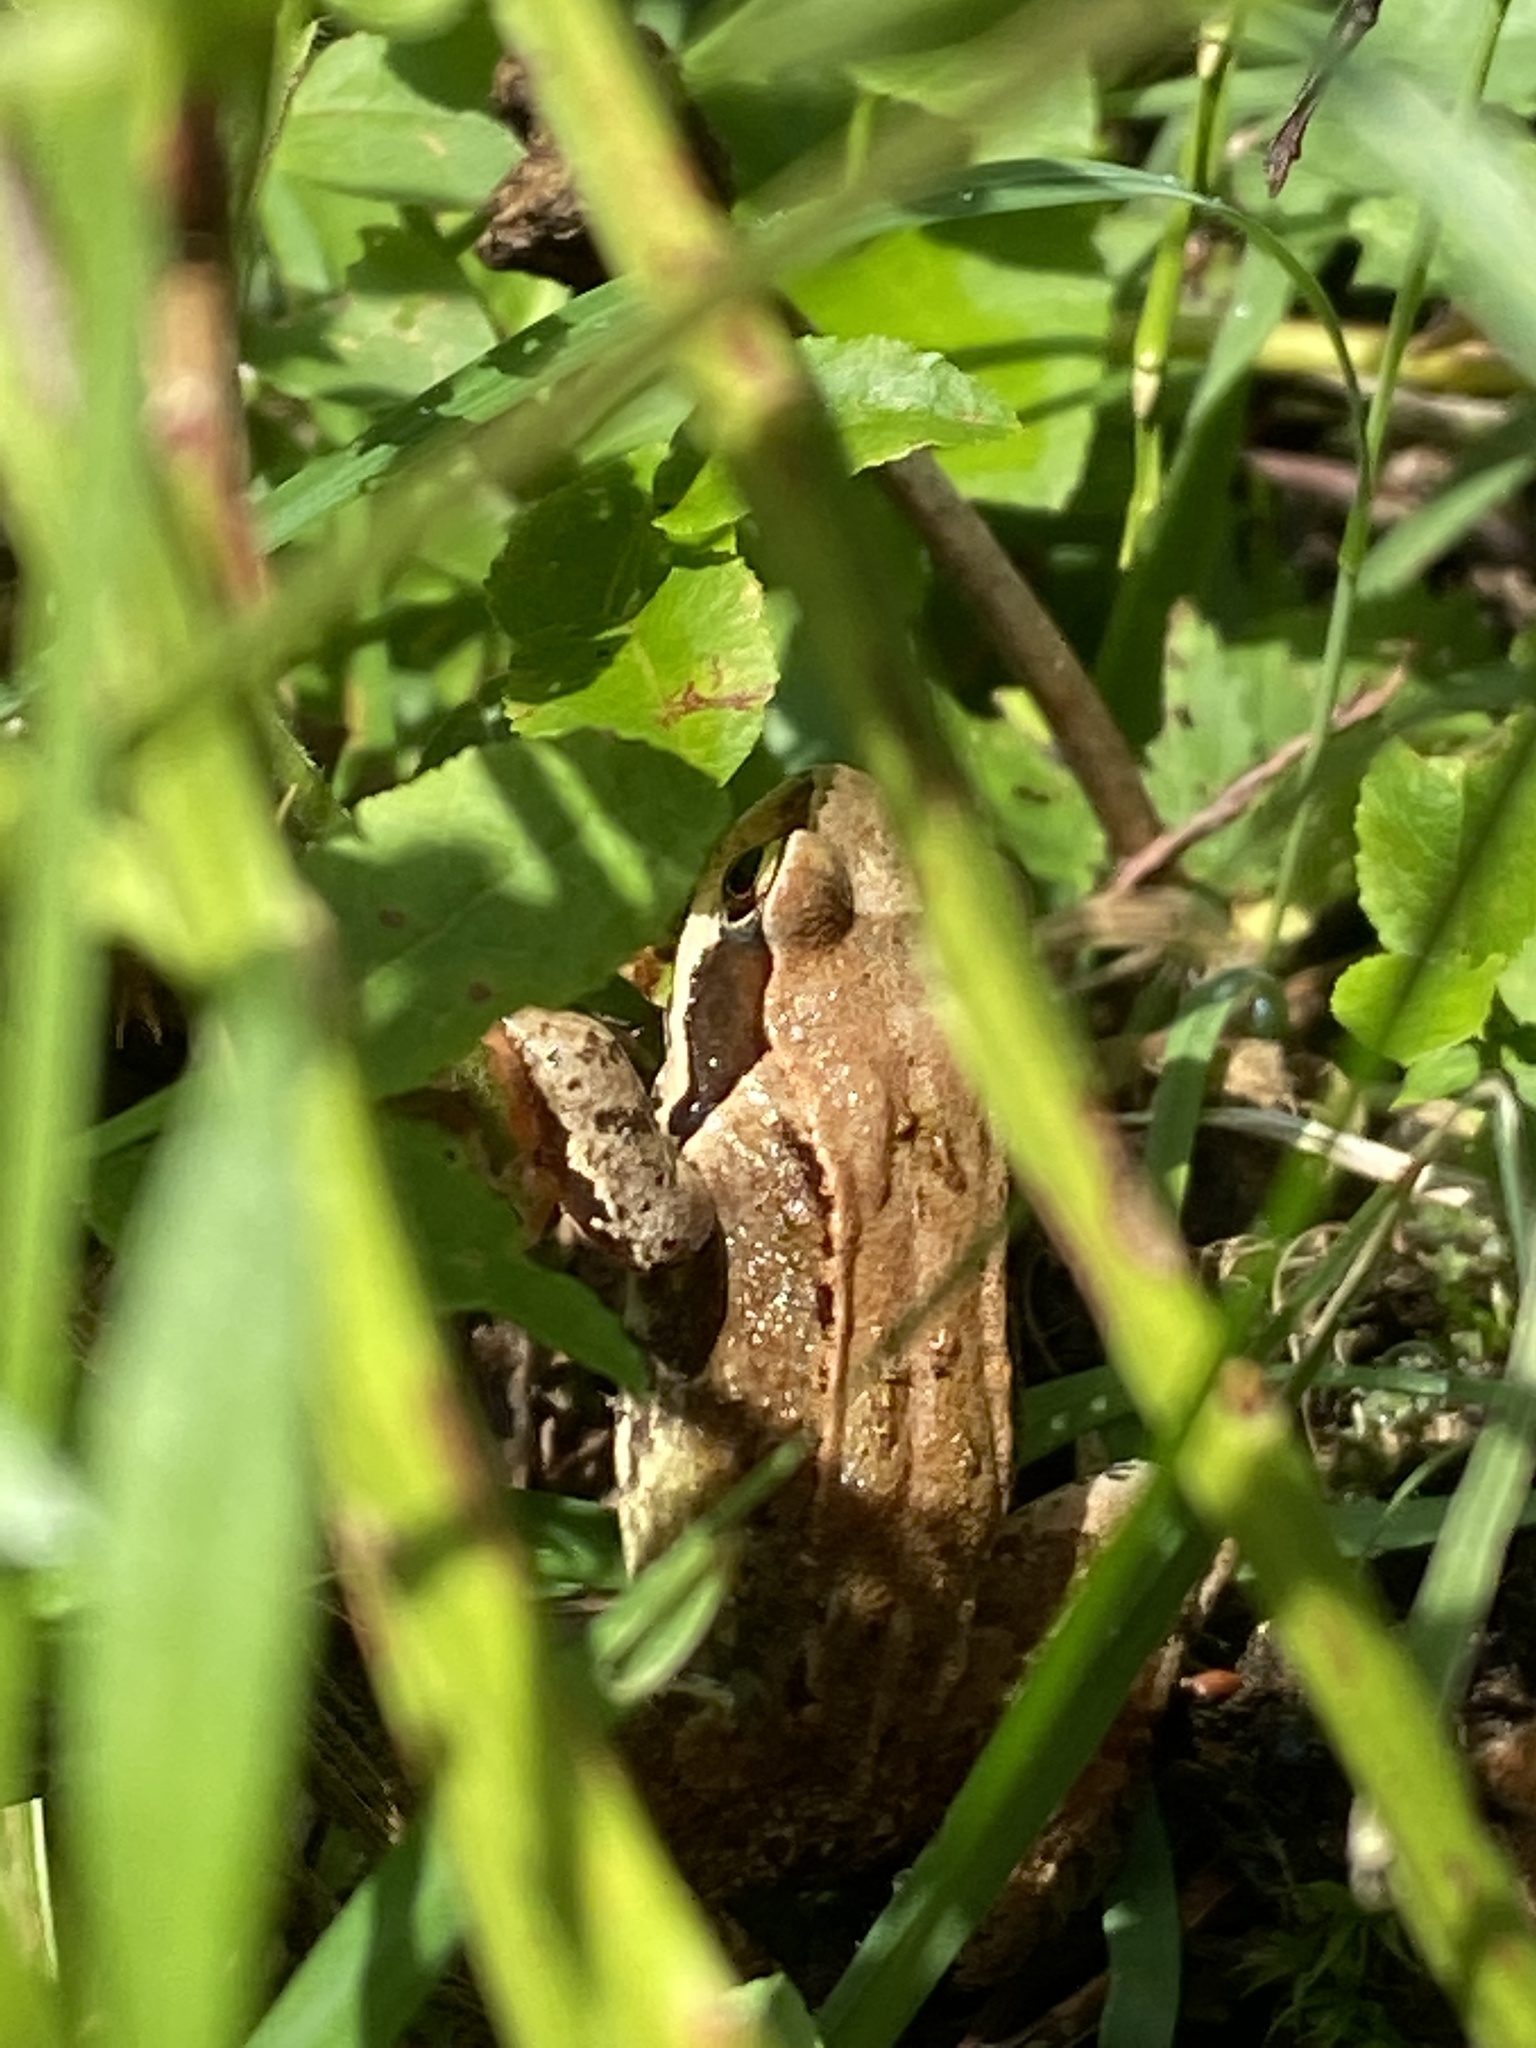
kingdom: Animalia
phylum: Chordata
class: Amphibia
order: Anura
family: Ranidae
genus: Rana
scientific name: Rana temporaria
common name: Common frog
